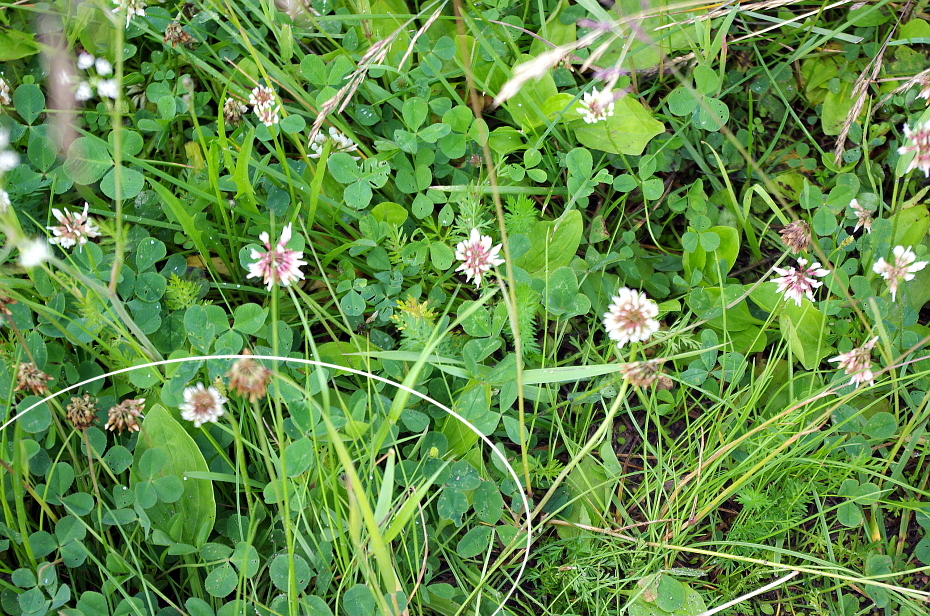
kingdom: Plantae
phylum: Tracheophyta
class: Magnoliopsida
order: Fabales
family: Fabaceae
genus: Medicago
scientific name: Medicago lupulina
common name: Black medick
